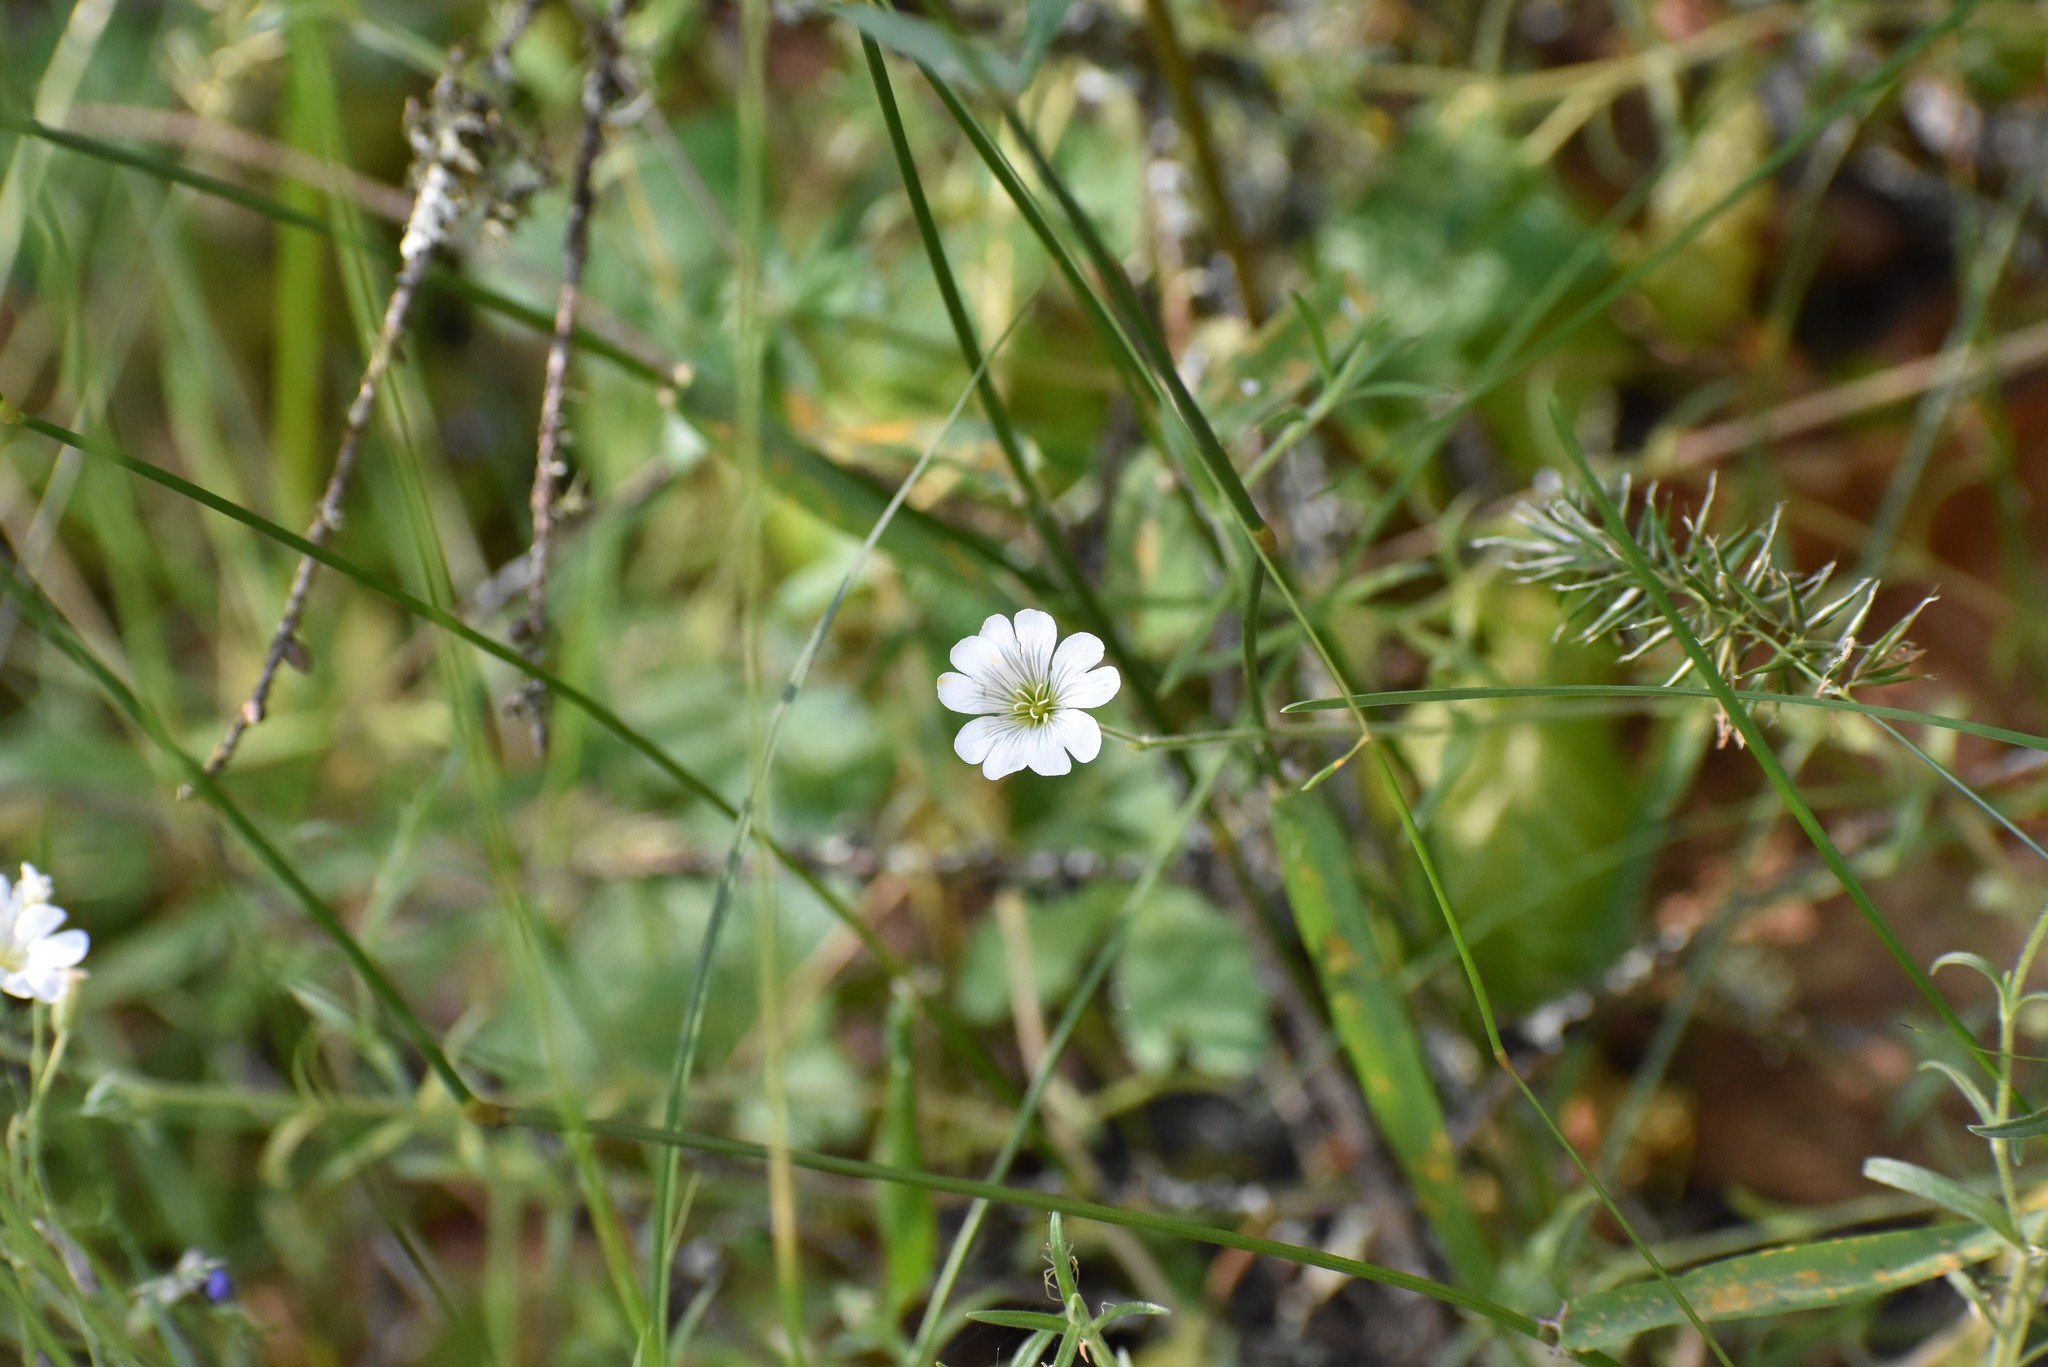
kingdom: Plantae
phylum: Tracheophyta
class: Magnoliopsida
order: Caryophyllales
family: Caryophyllaceae
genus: Cerastium
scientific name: Cerastium arvense
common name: Field mouse-ear
